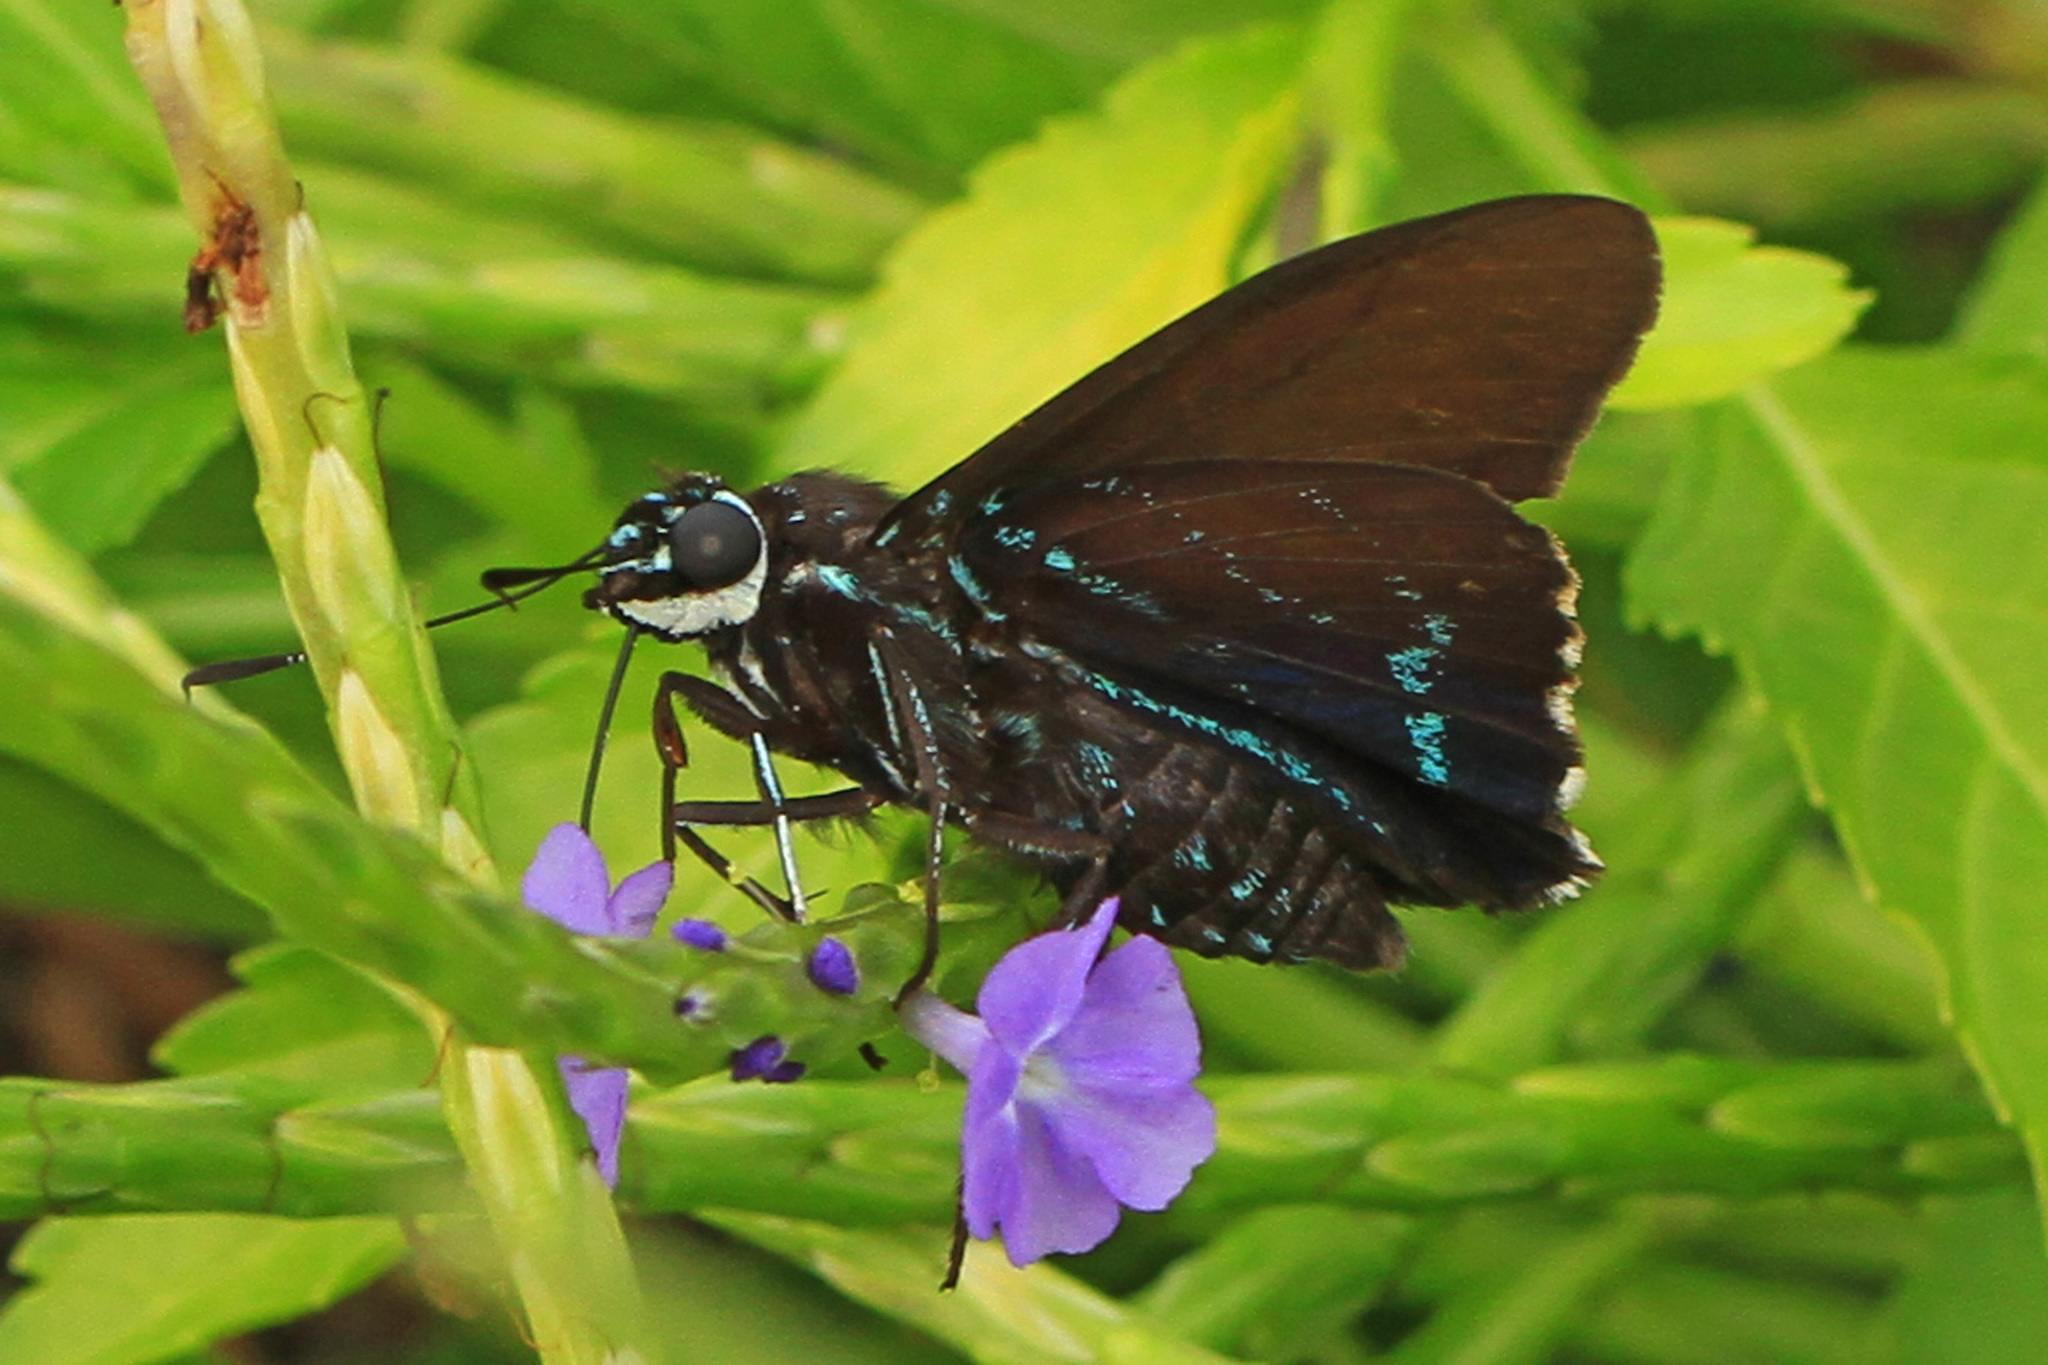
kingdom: Animalia
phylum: Arthropoda
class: Insecta
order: Lepidoptera
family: Hesperiidae
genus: Phocides
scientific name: Phocides pigmalion
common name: Mangrove skipper
